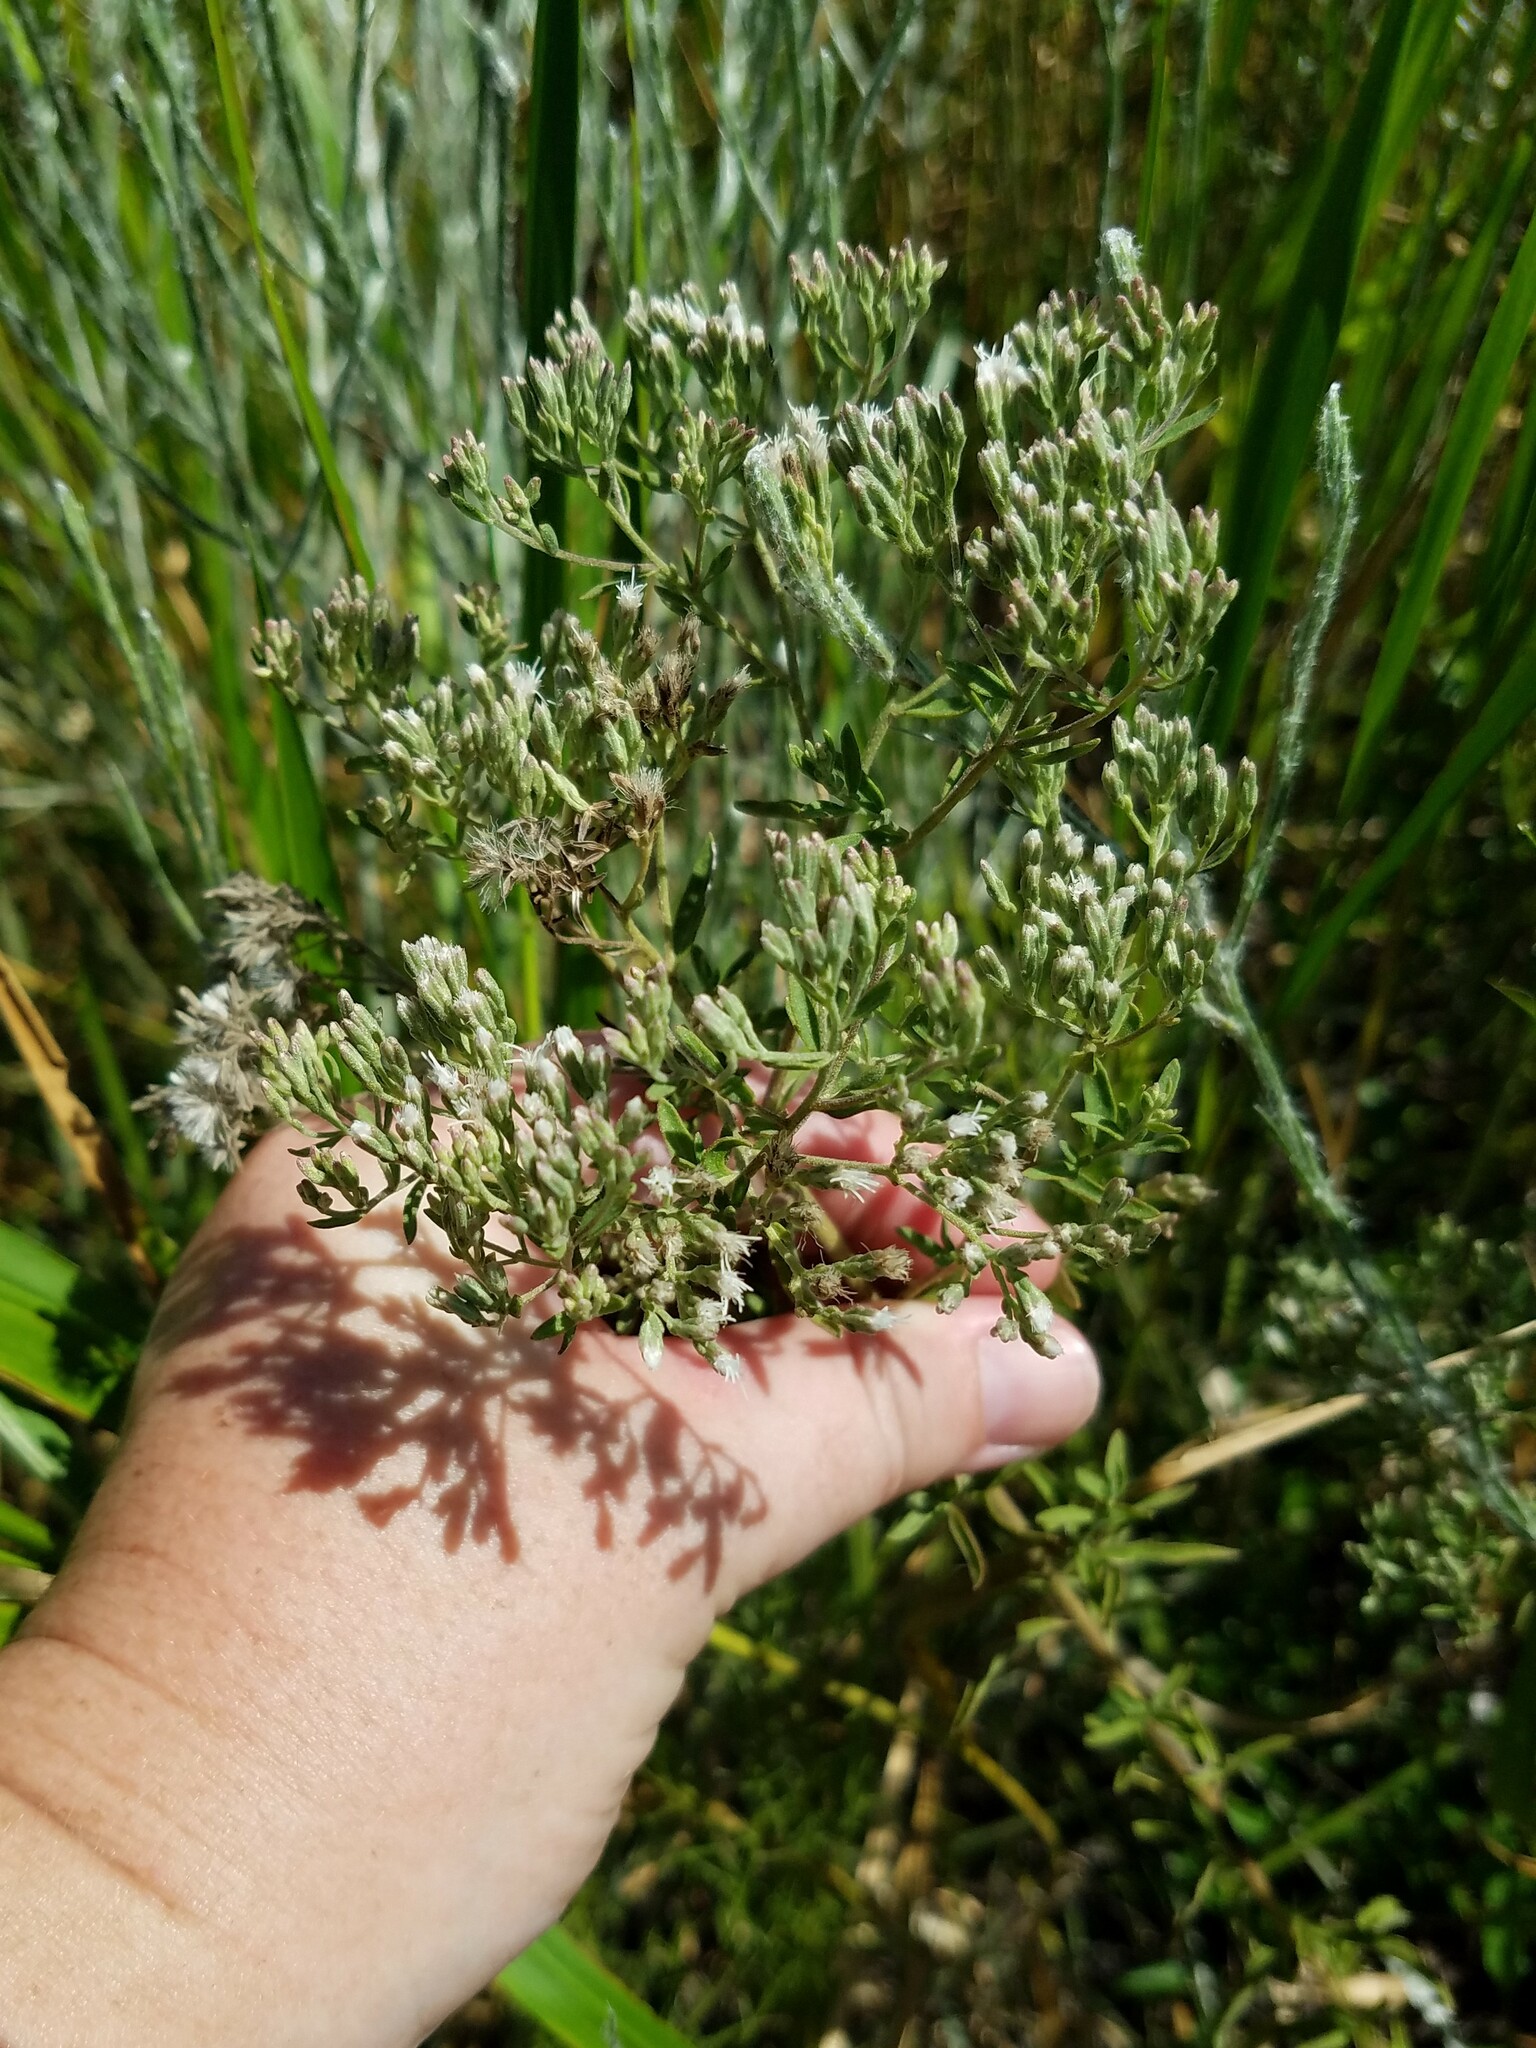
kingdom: Plantae
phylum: Tracheophyta
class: Magnoliopsida
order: Asterales
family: Asteraceae
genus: Eupatorium
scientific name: Eupatorium mohrii
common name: Mohr's thoroughwort
